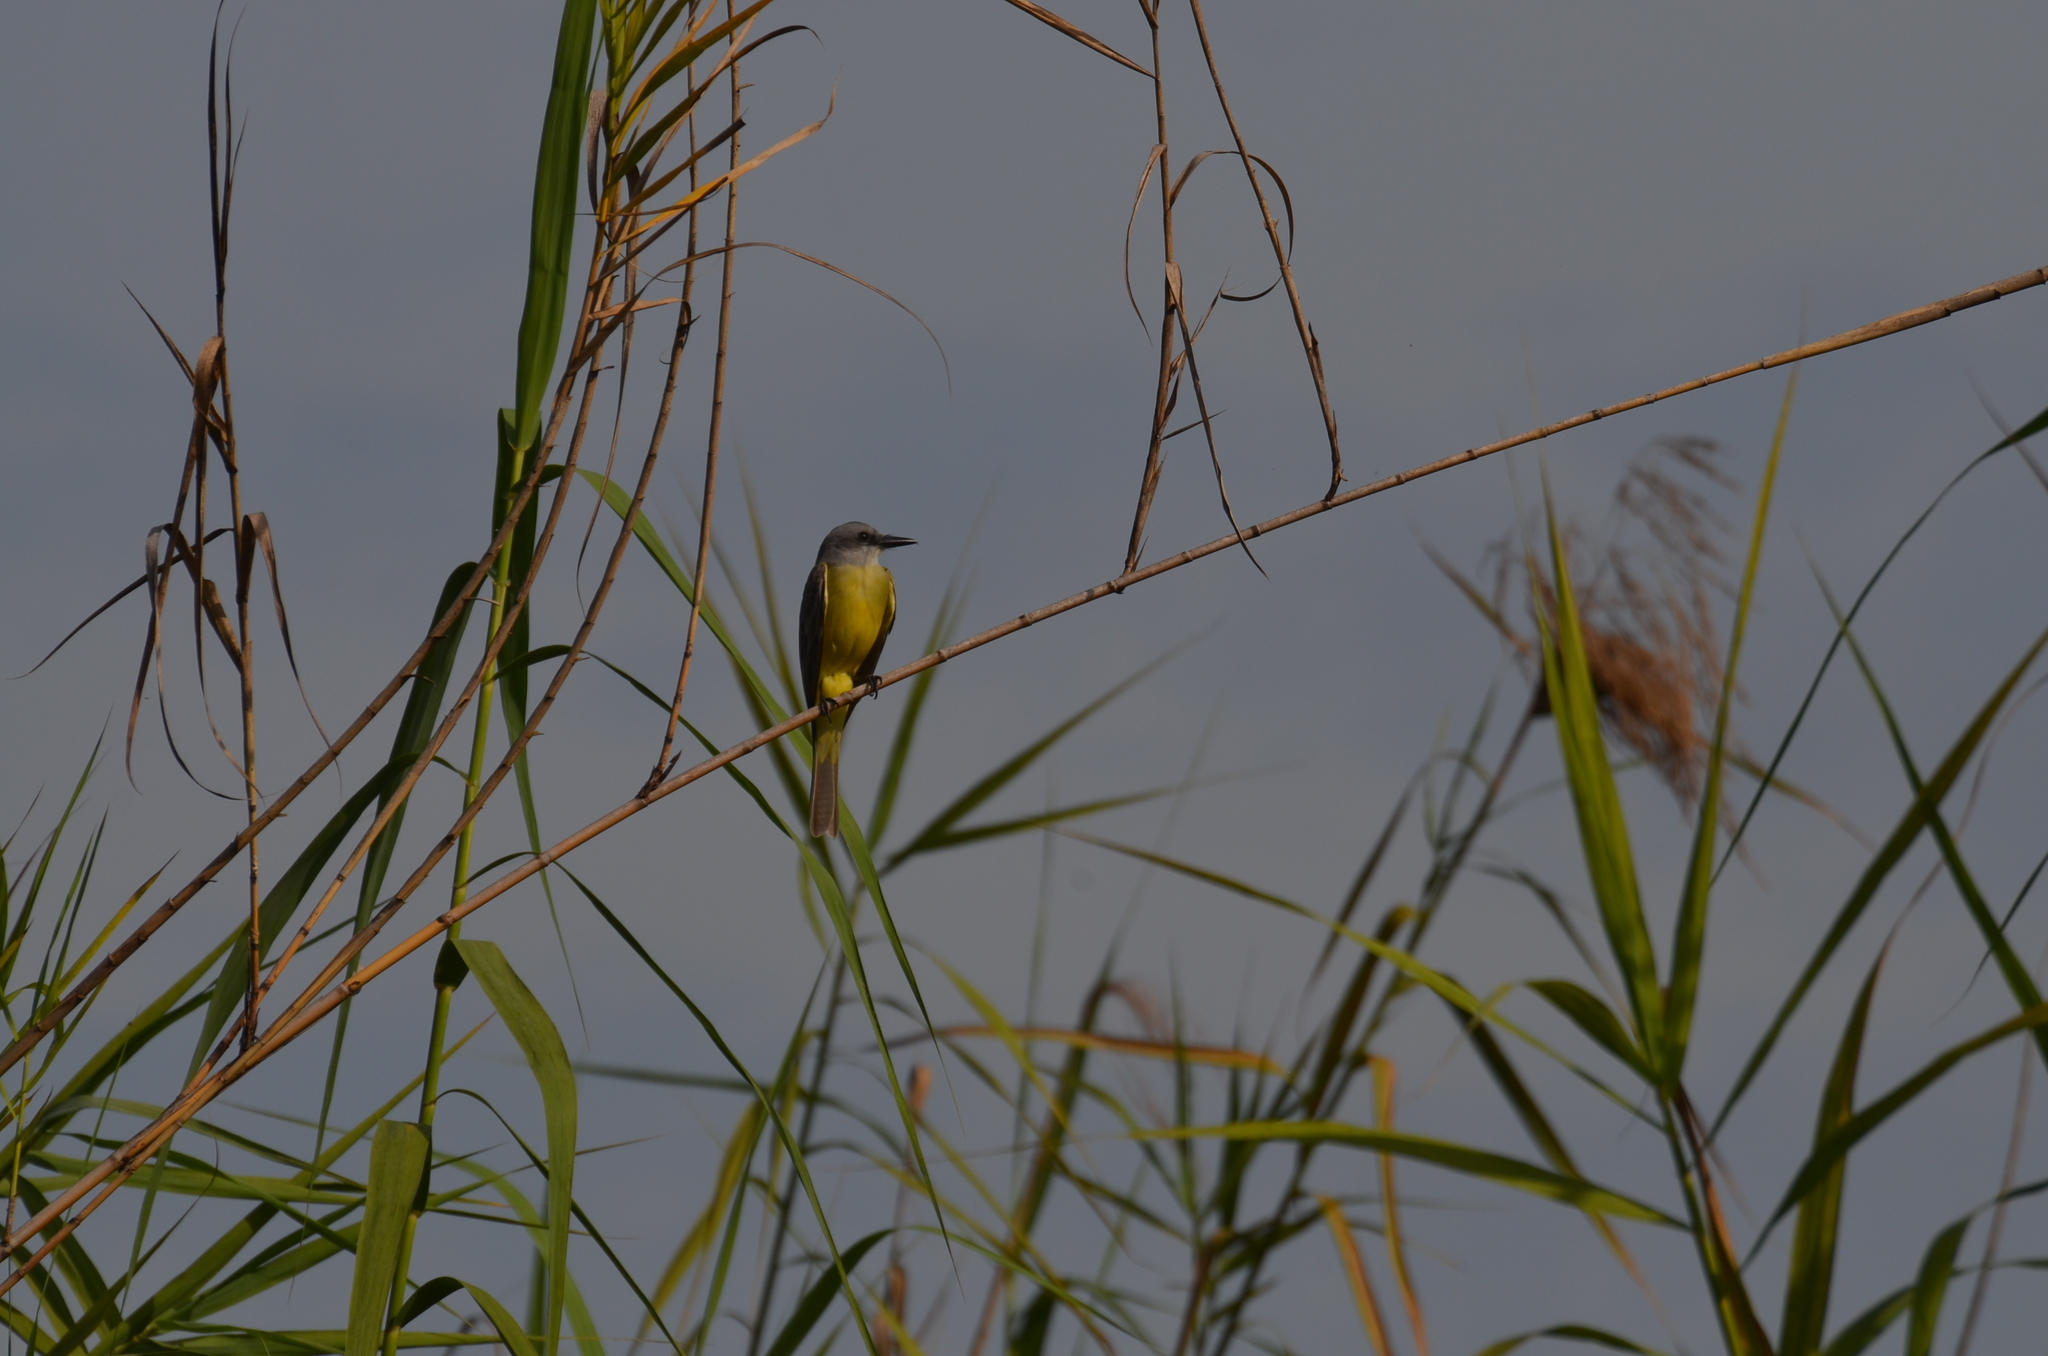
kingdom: Animalia
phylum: Chordata
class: Aves
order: Passeriformes
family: Tyrannidae
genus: Tyrannus
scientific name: Tyrannus melancholicus
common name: Tropical kingbird
